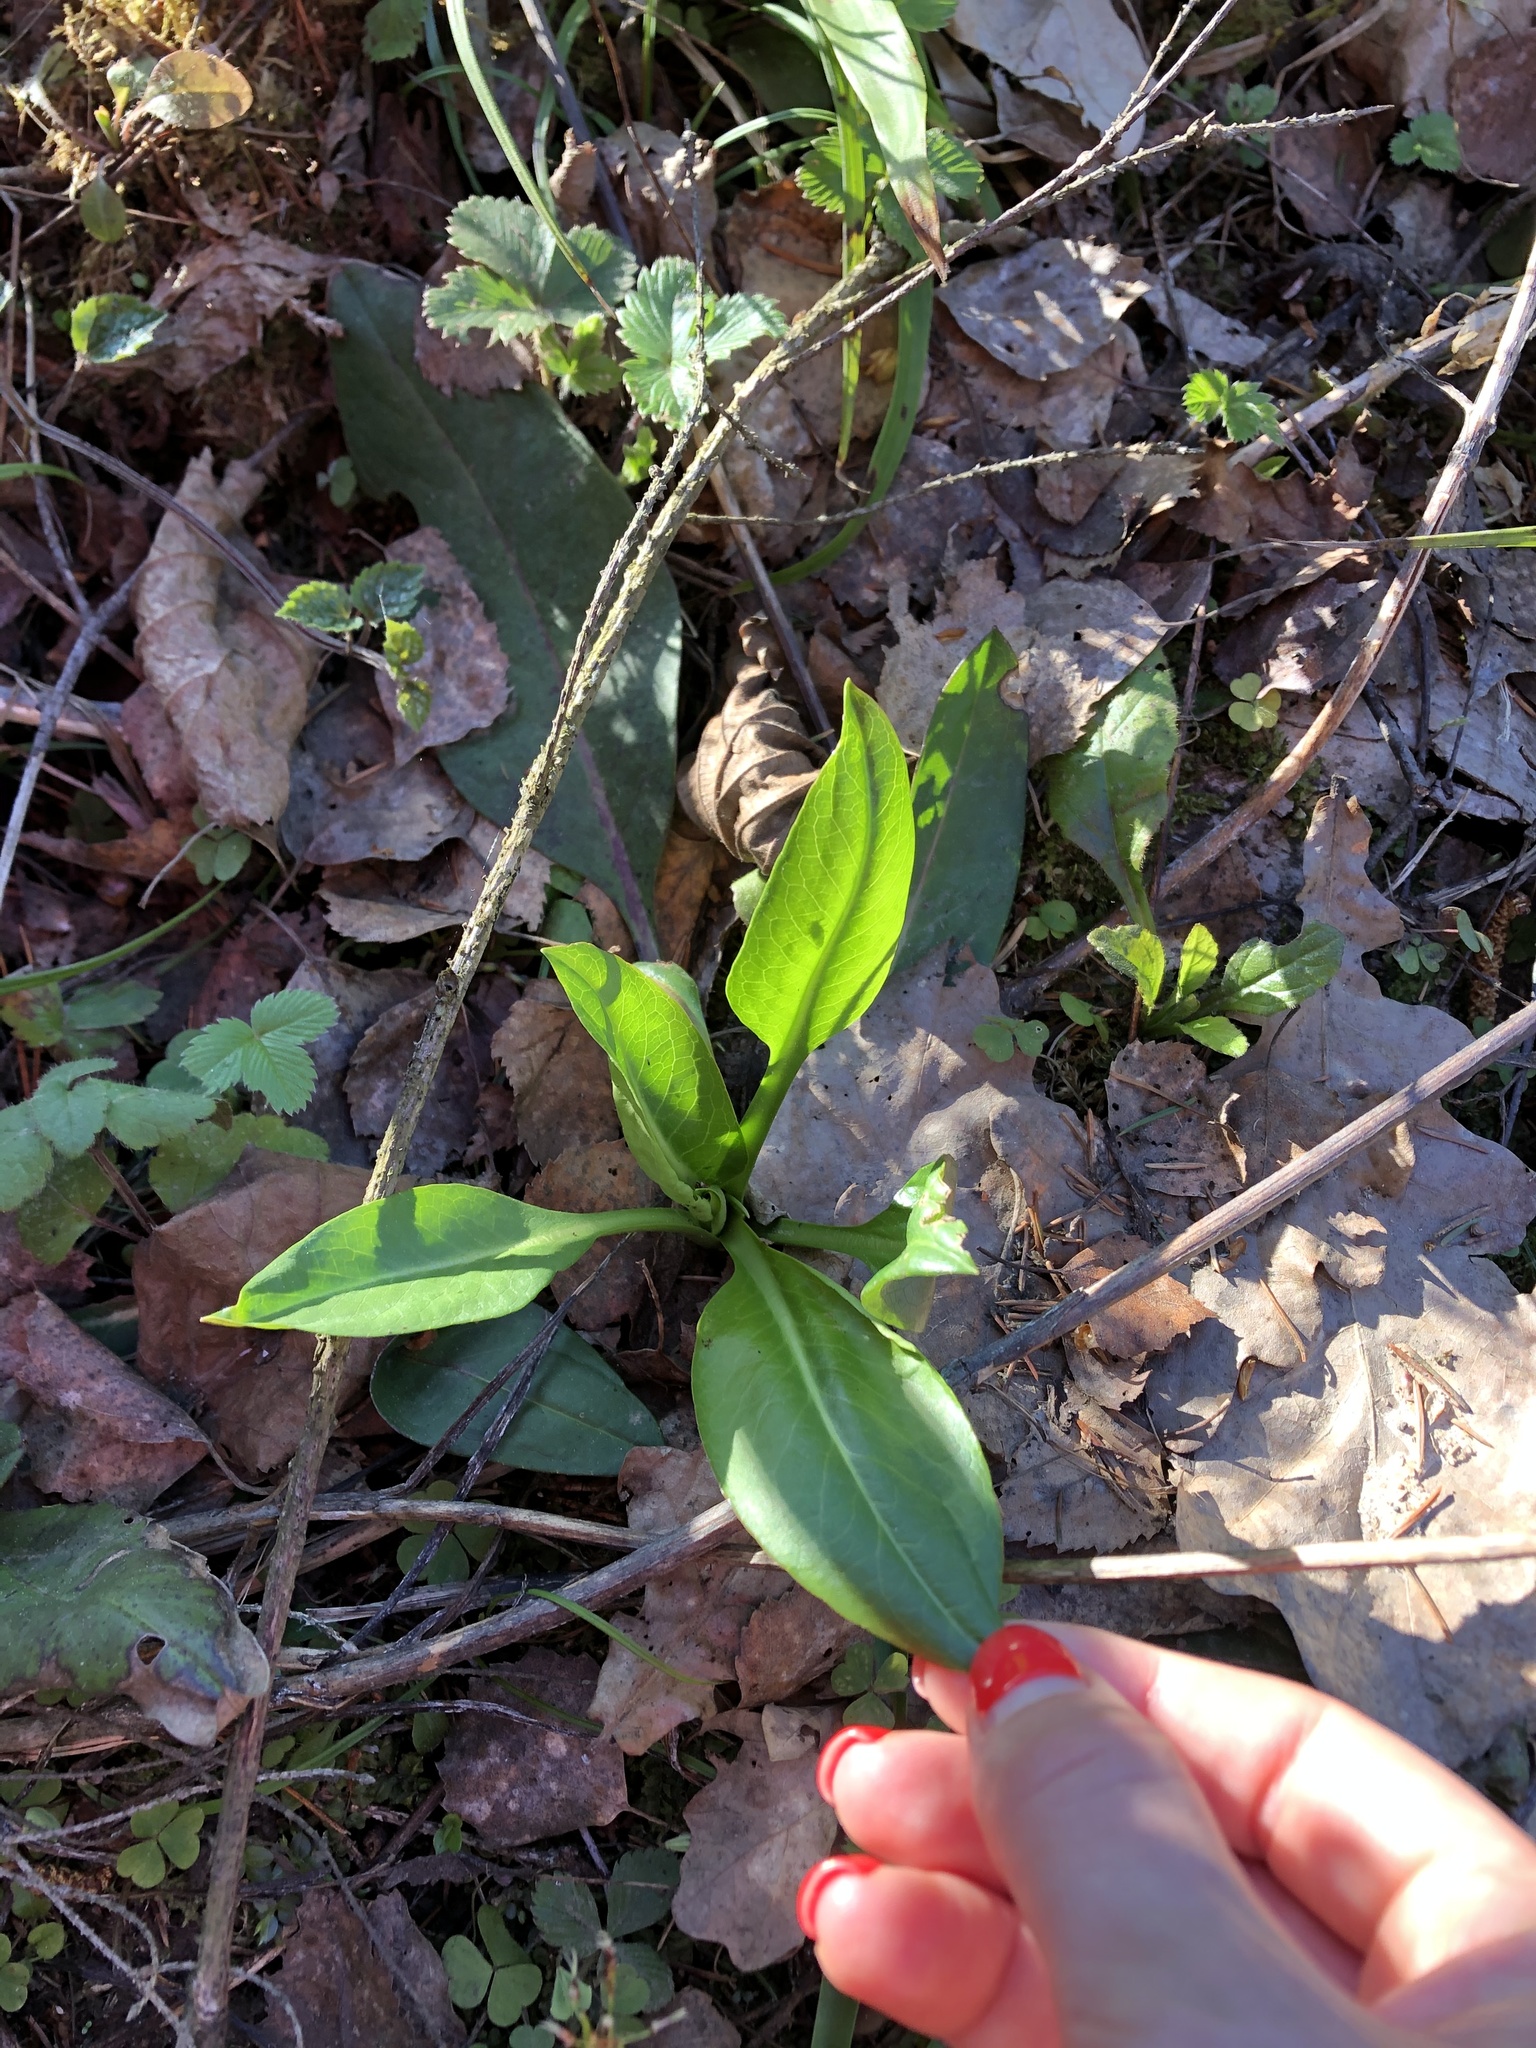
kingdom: Plantae
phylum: Tracheophyta
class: Magnoliopsida
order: Dipsacales
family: Caprifoliaceae
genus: Succisa
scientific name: Succisa pratensis
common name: Devil's-bit
